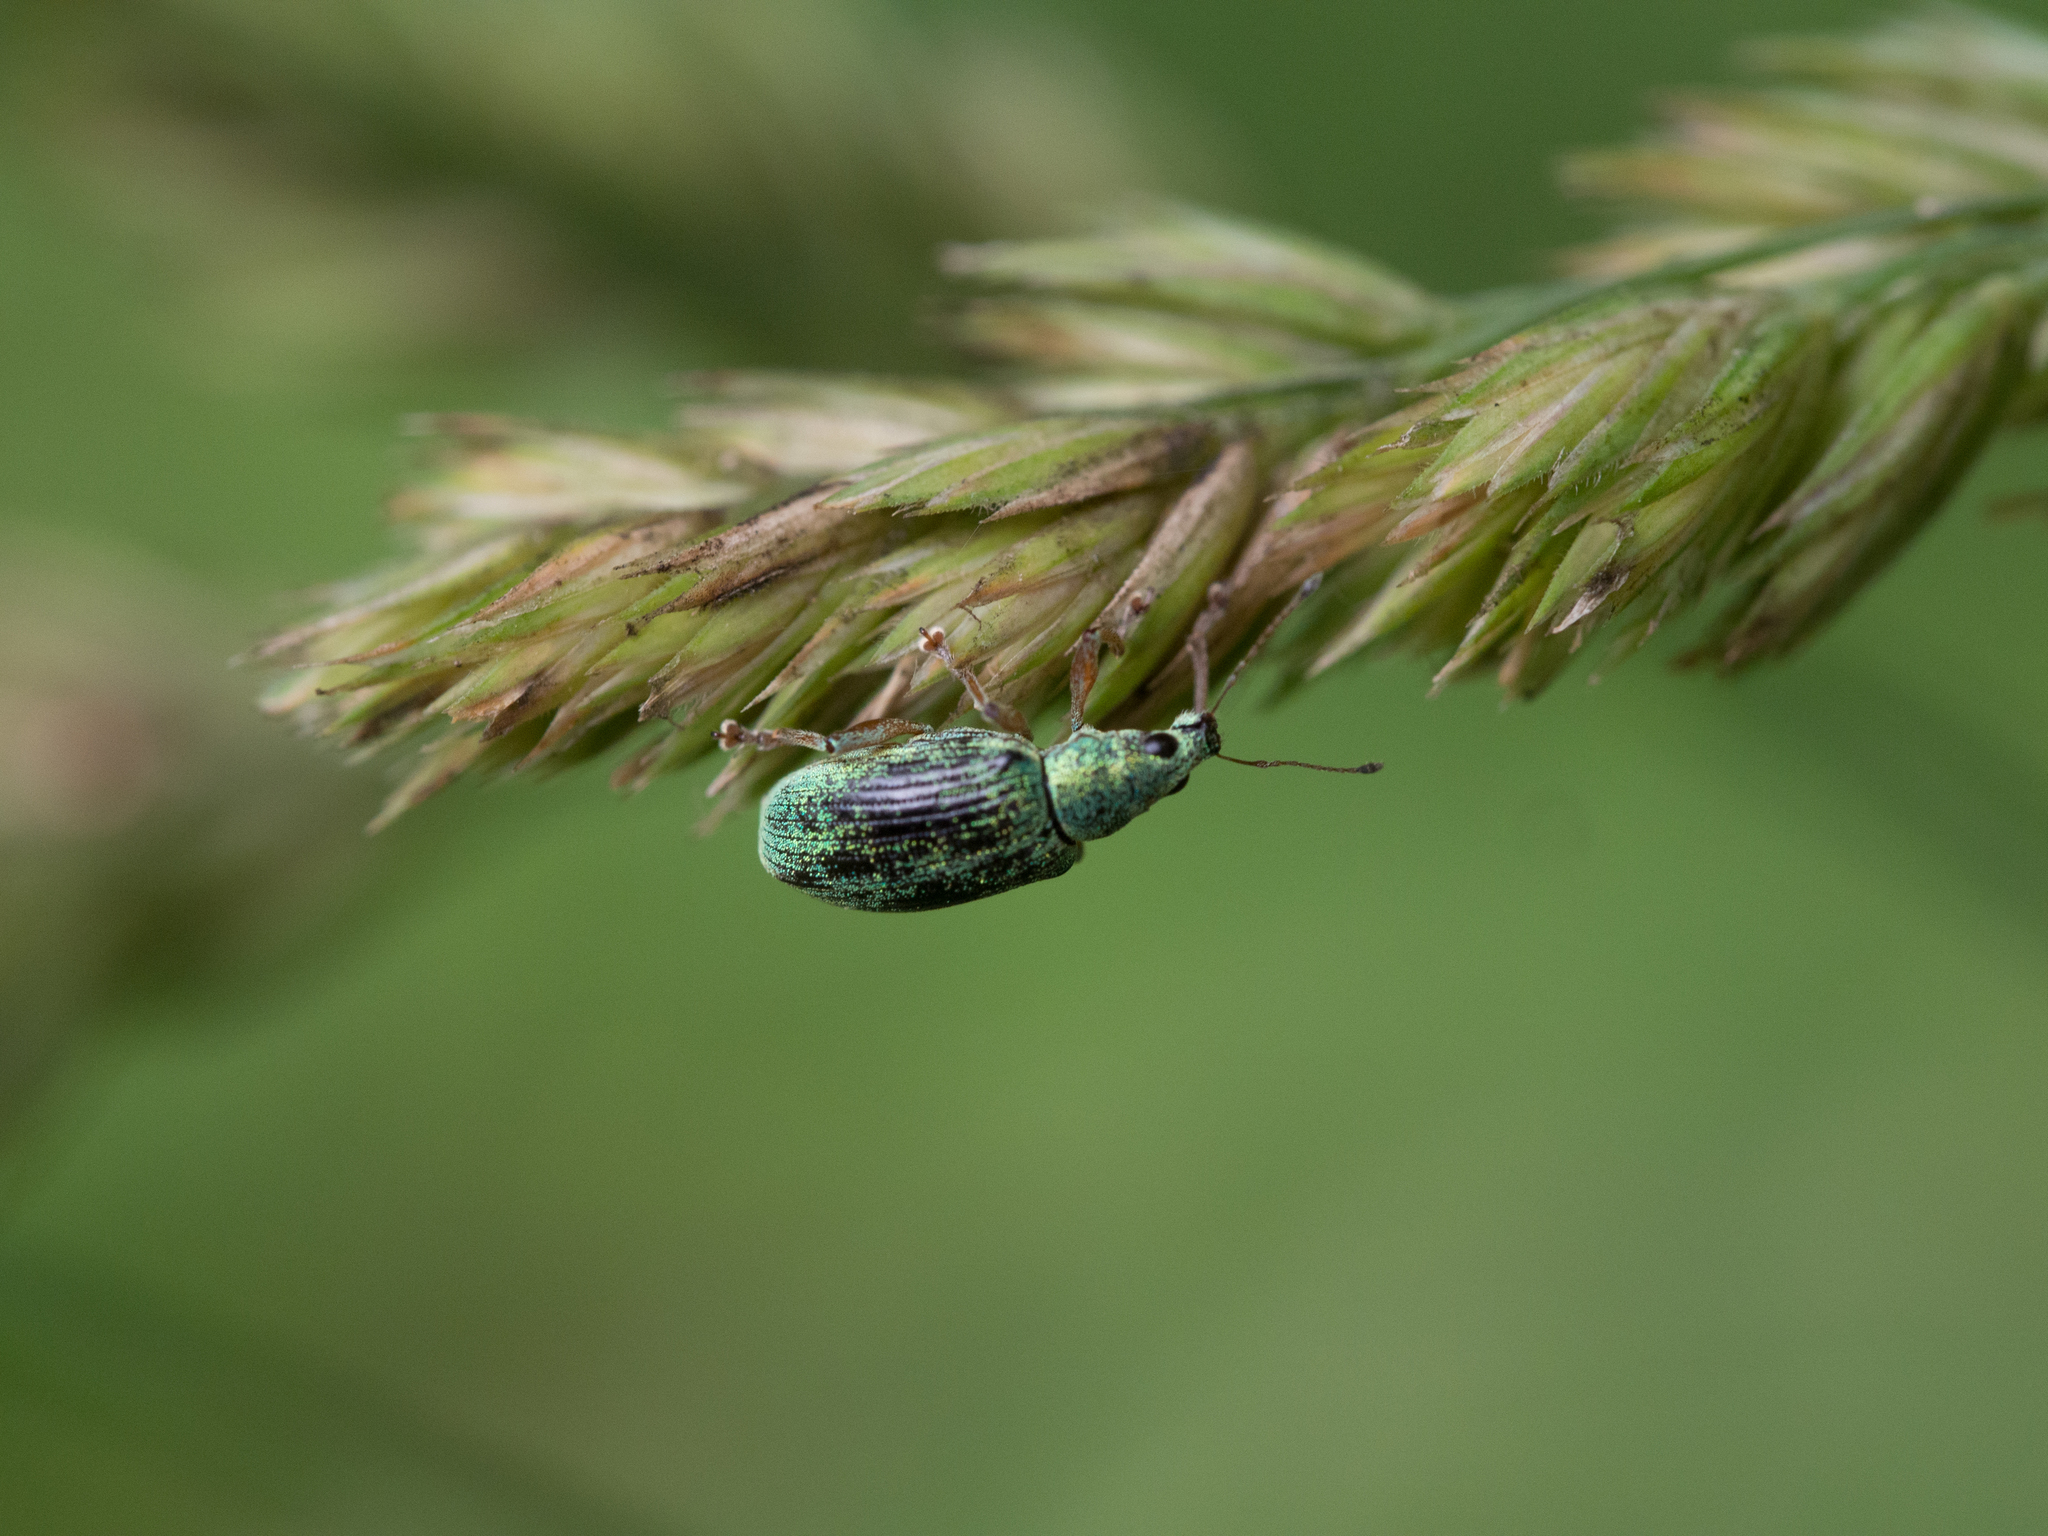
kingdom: Animalia
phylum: Arthropoda
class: Insecta
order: Coleoptera
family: Curculionidae
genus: Polydrusus
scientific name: Polydrusus formosus
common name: Weevil
